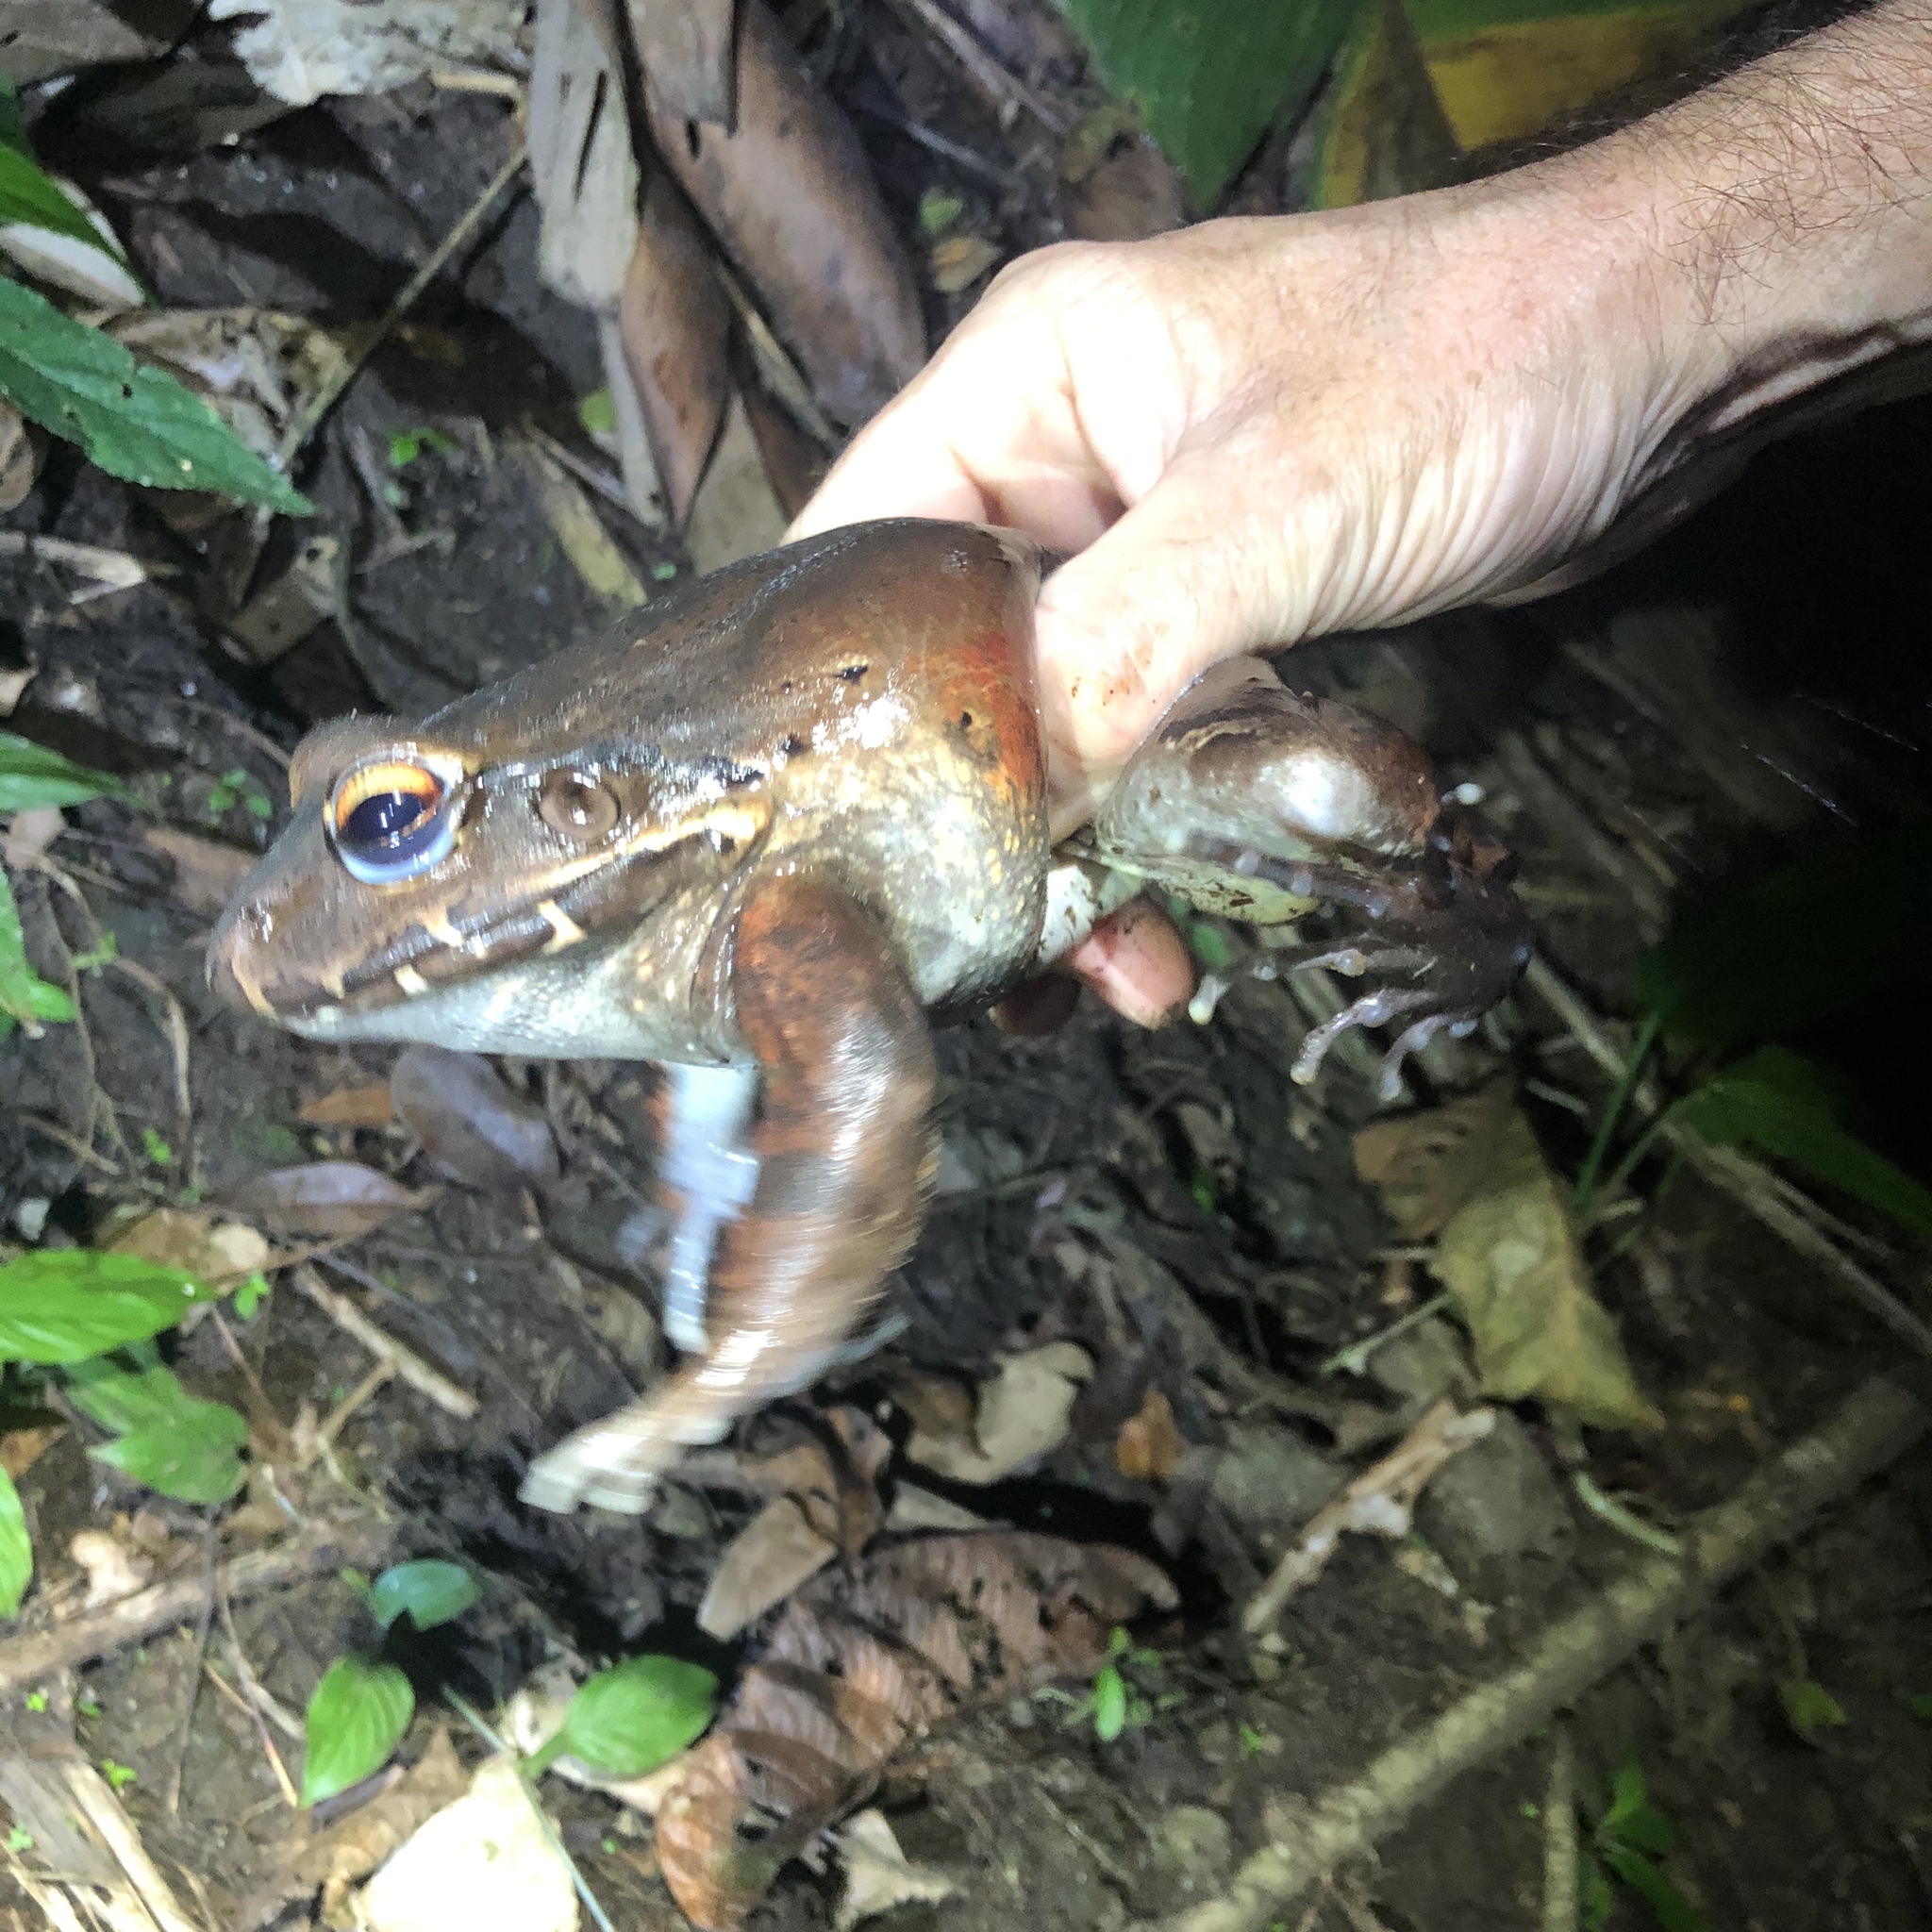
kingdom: Animalia
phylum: Chordata
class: Amphibia
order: Anura
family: Leptodactylidae
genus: Leptodactylus
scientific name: Leptodactylus savagei
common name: Savage's thin-toed frog
